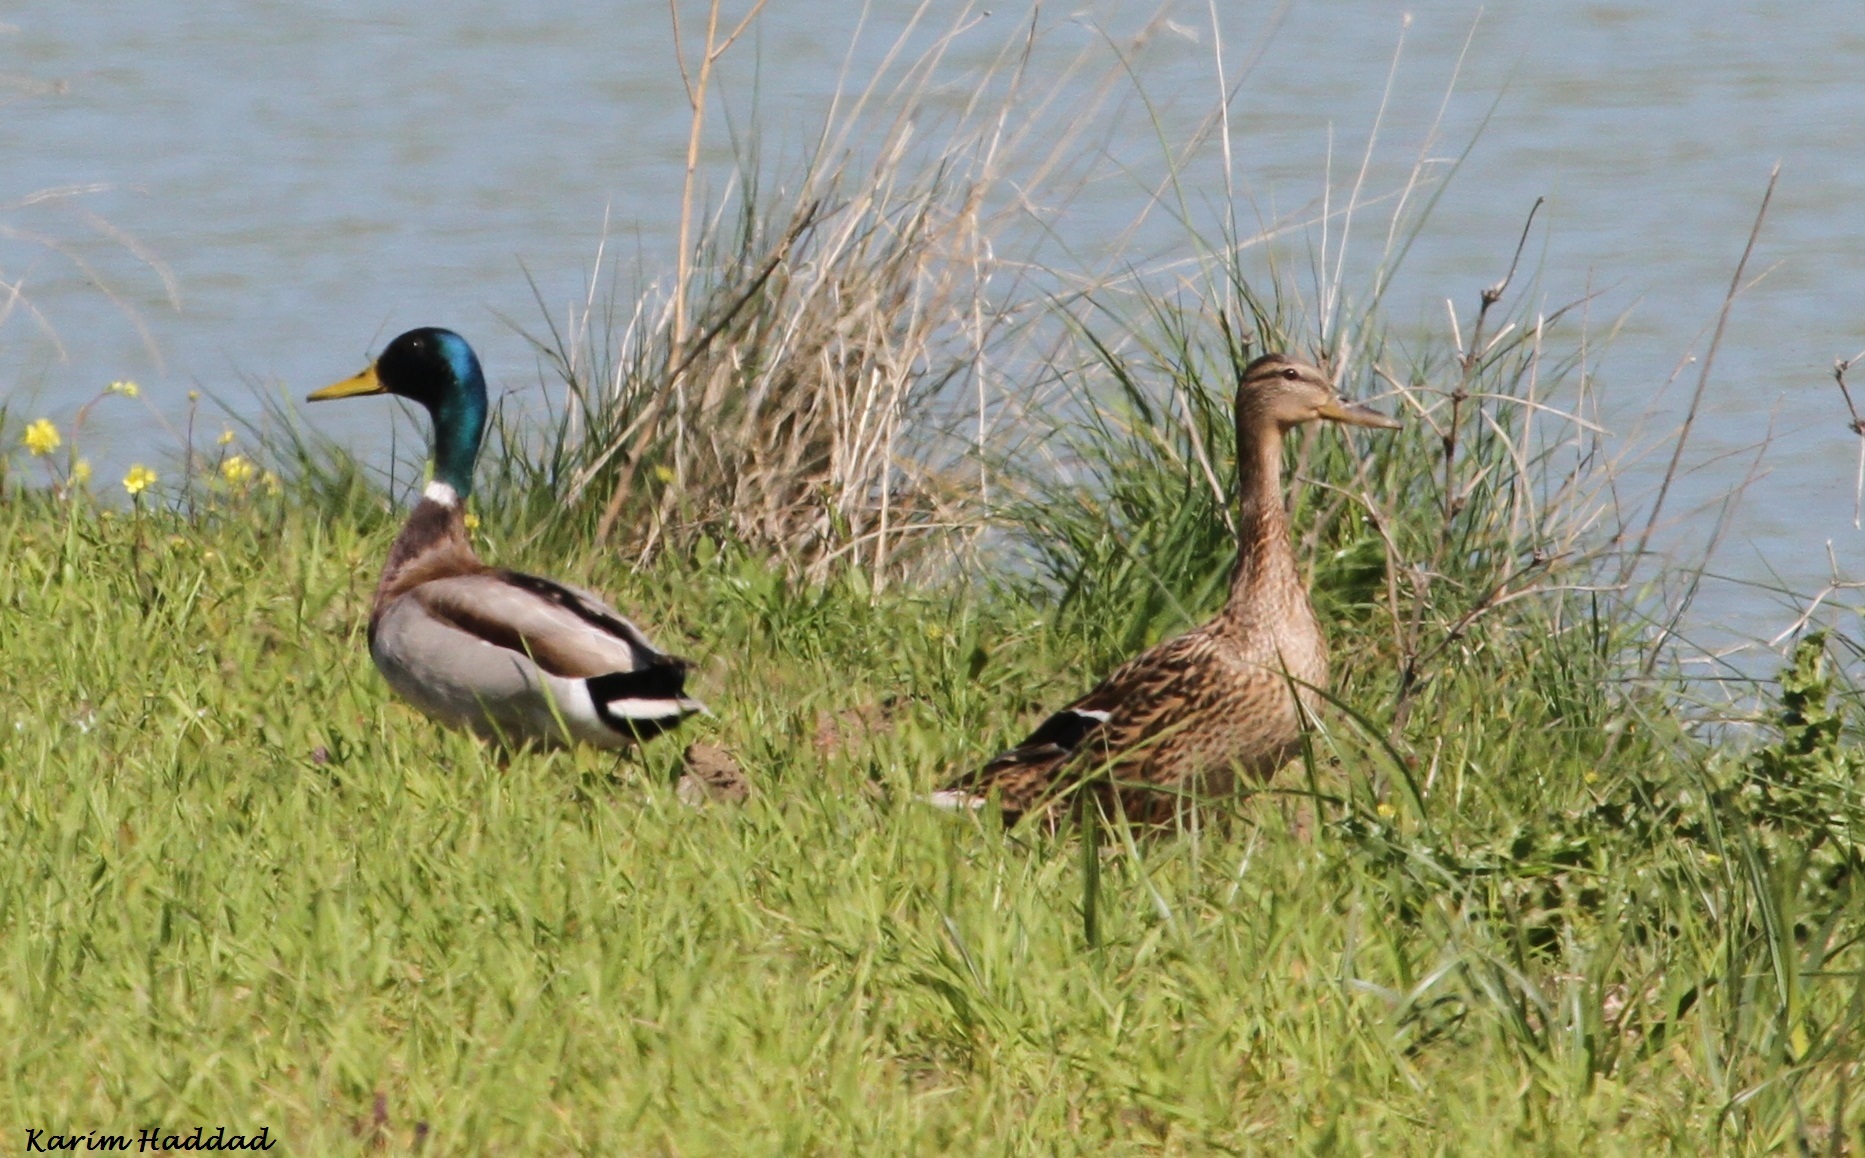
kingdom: Animalia
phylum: Chordata
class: Aves
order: Anseriformes
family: Anatidae
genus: Anas
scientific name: Anas platyrhynchos
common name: Mallard
